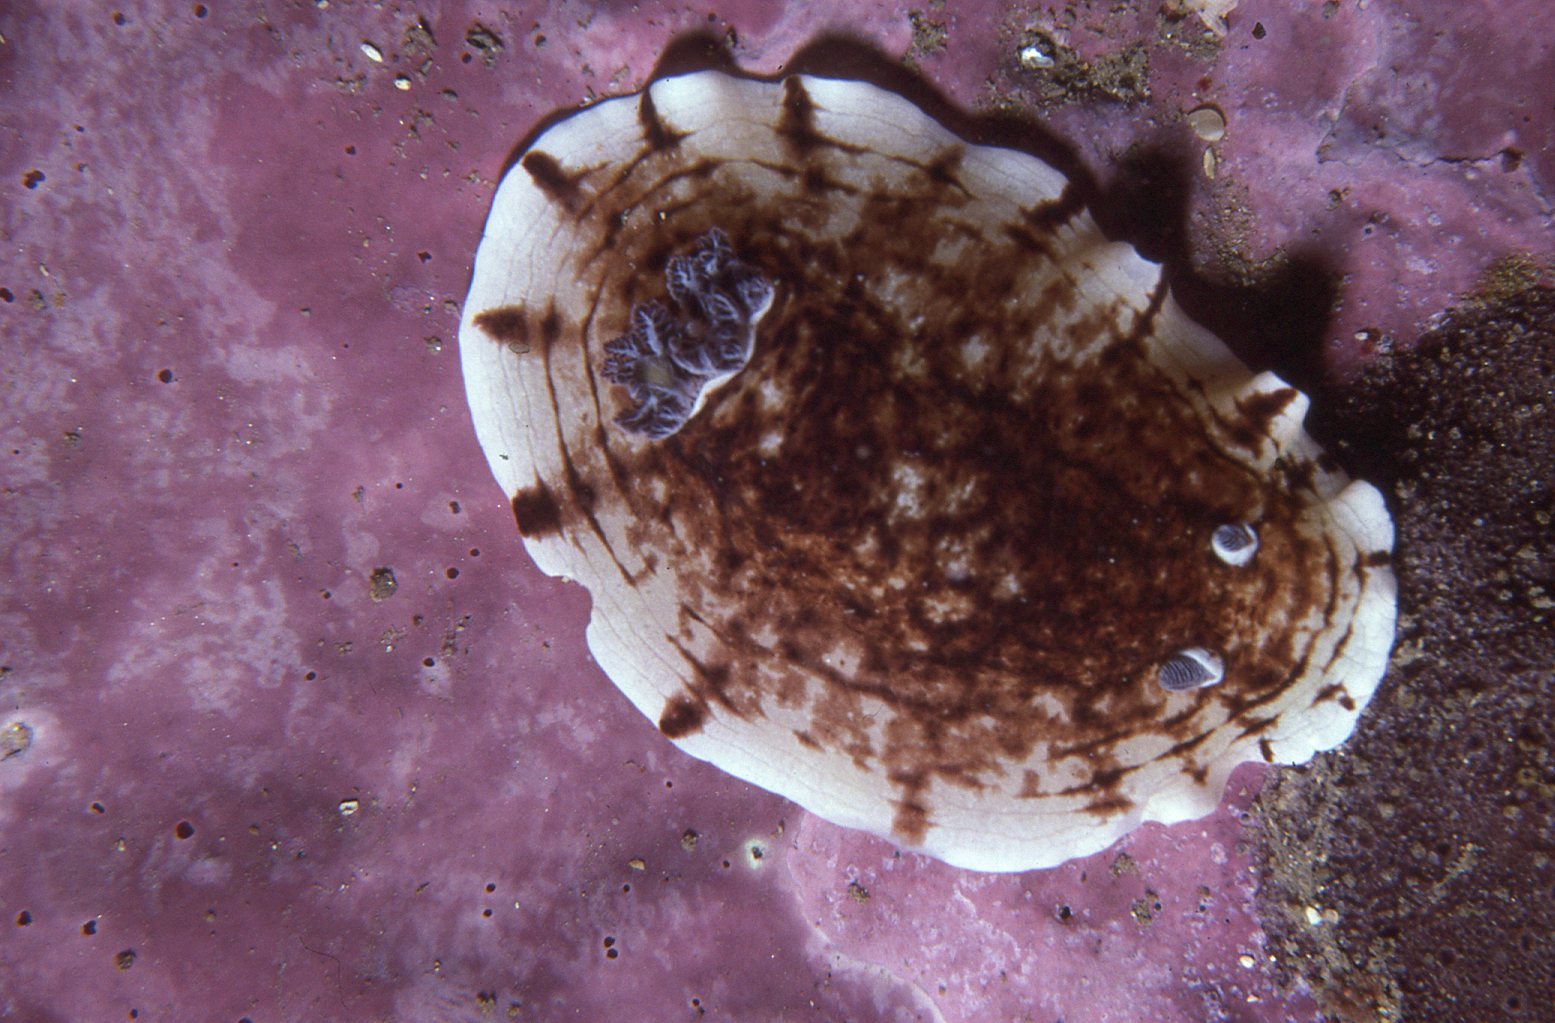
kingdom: Animalia
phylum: Mollusca
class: Gastropoda
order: Nudibranchia
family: Dorididae
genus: Aphelodoris
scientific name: Aphelodoris varia
